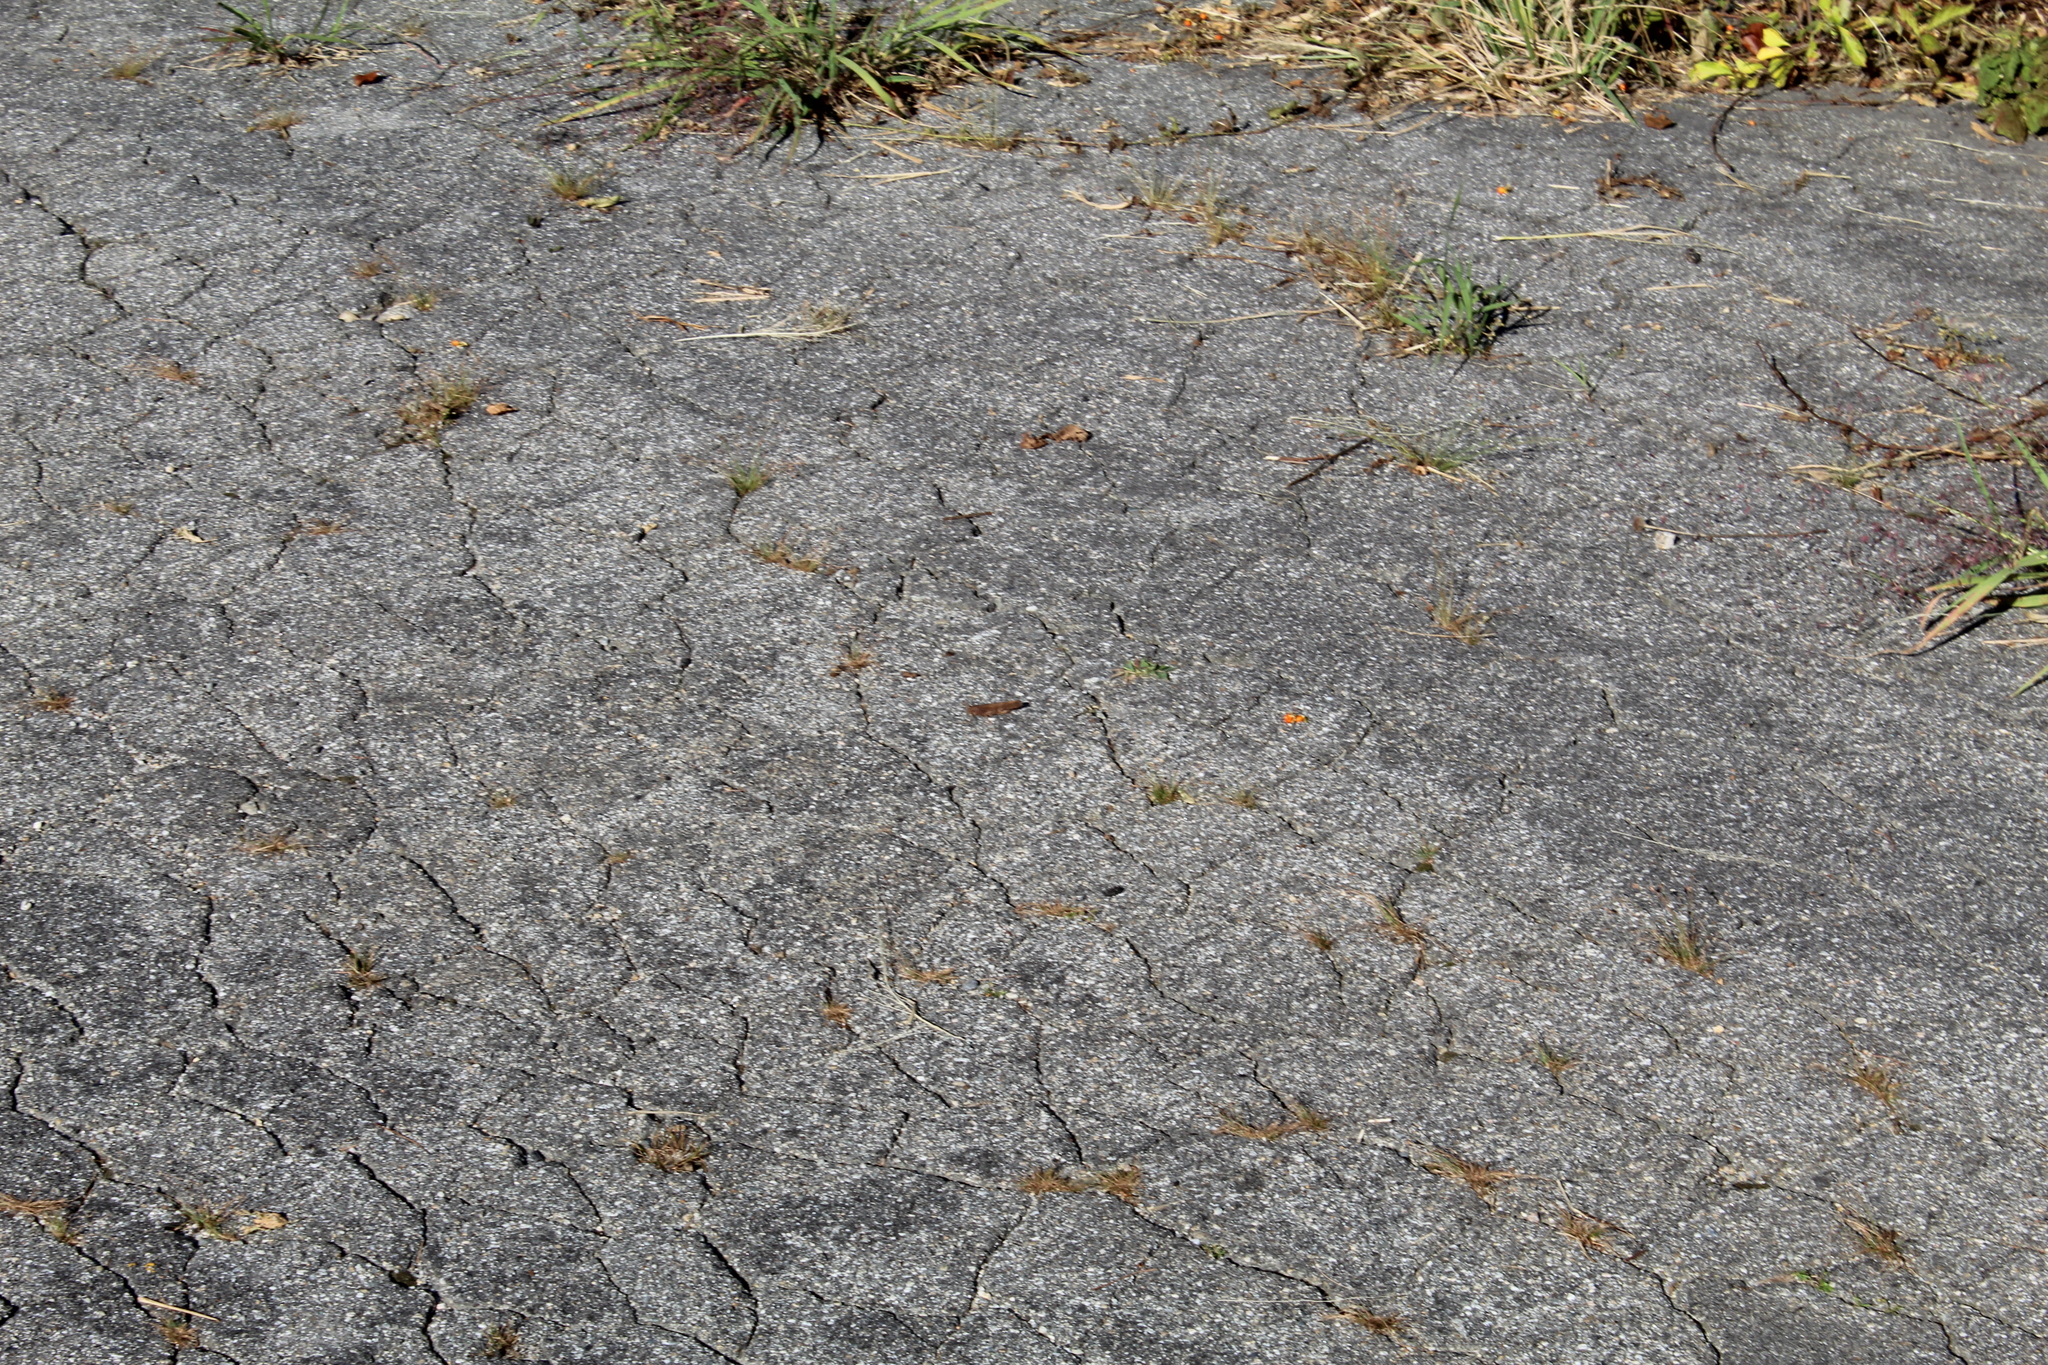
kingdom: Animalia
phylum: Arthropoda
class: Insecta
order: Orthoptera
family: Acrididae
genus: Dissosteira
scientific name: Dissosteira carolina
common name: Carolina grasshopper
